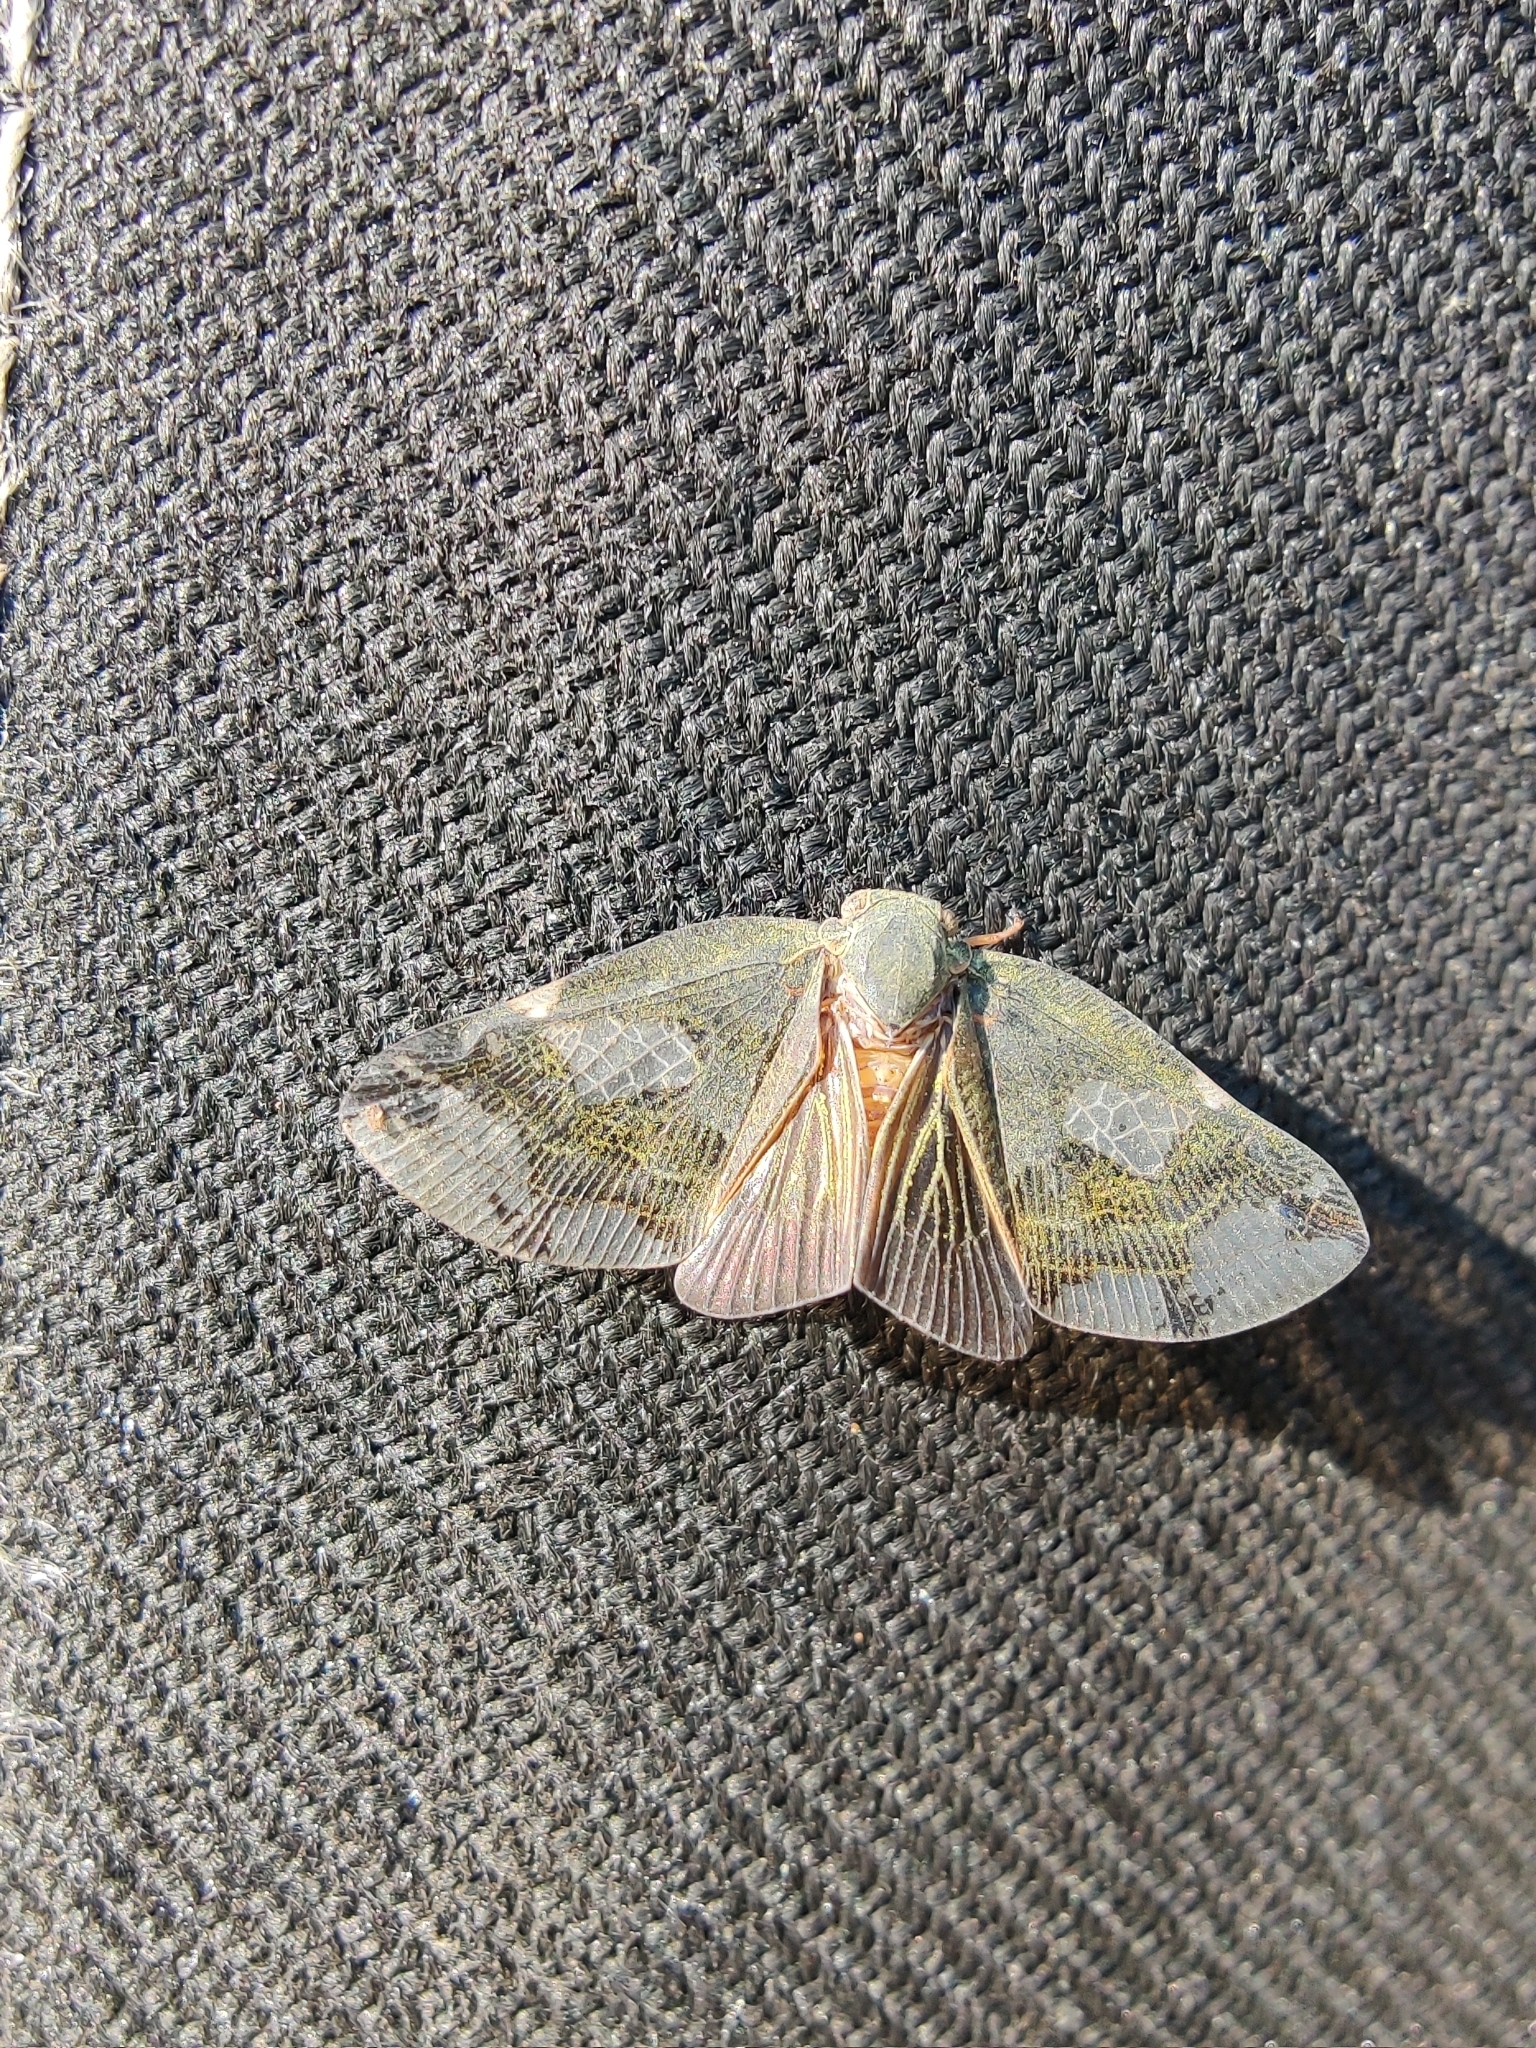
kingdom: Animalia
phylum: Arthropoda
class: Insecta
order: Hemiptera
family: Ricaniidae
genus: Ricania
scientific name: Ricania fenestrata
